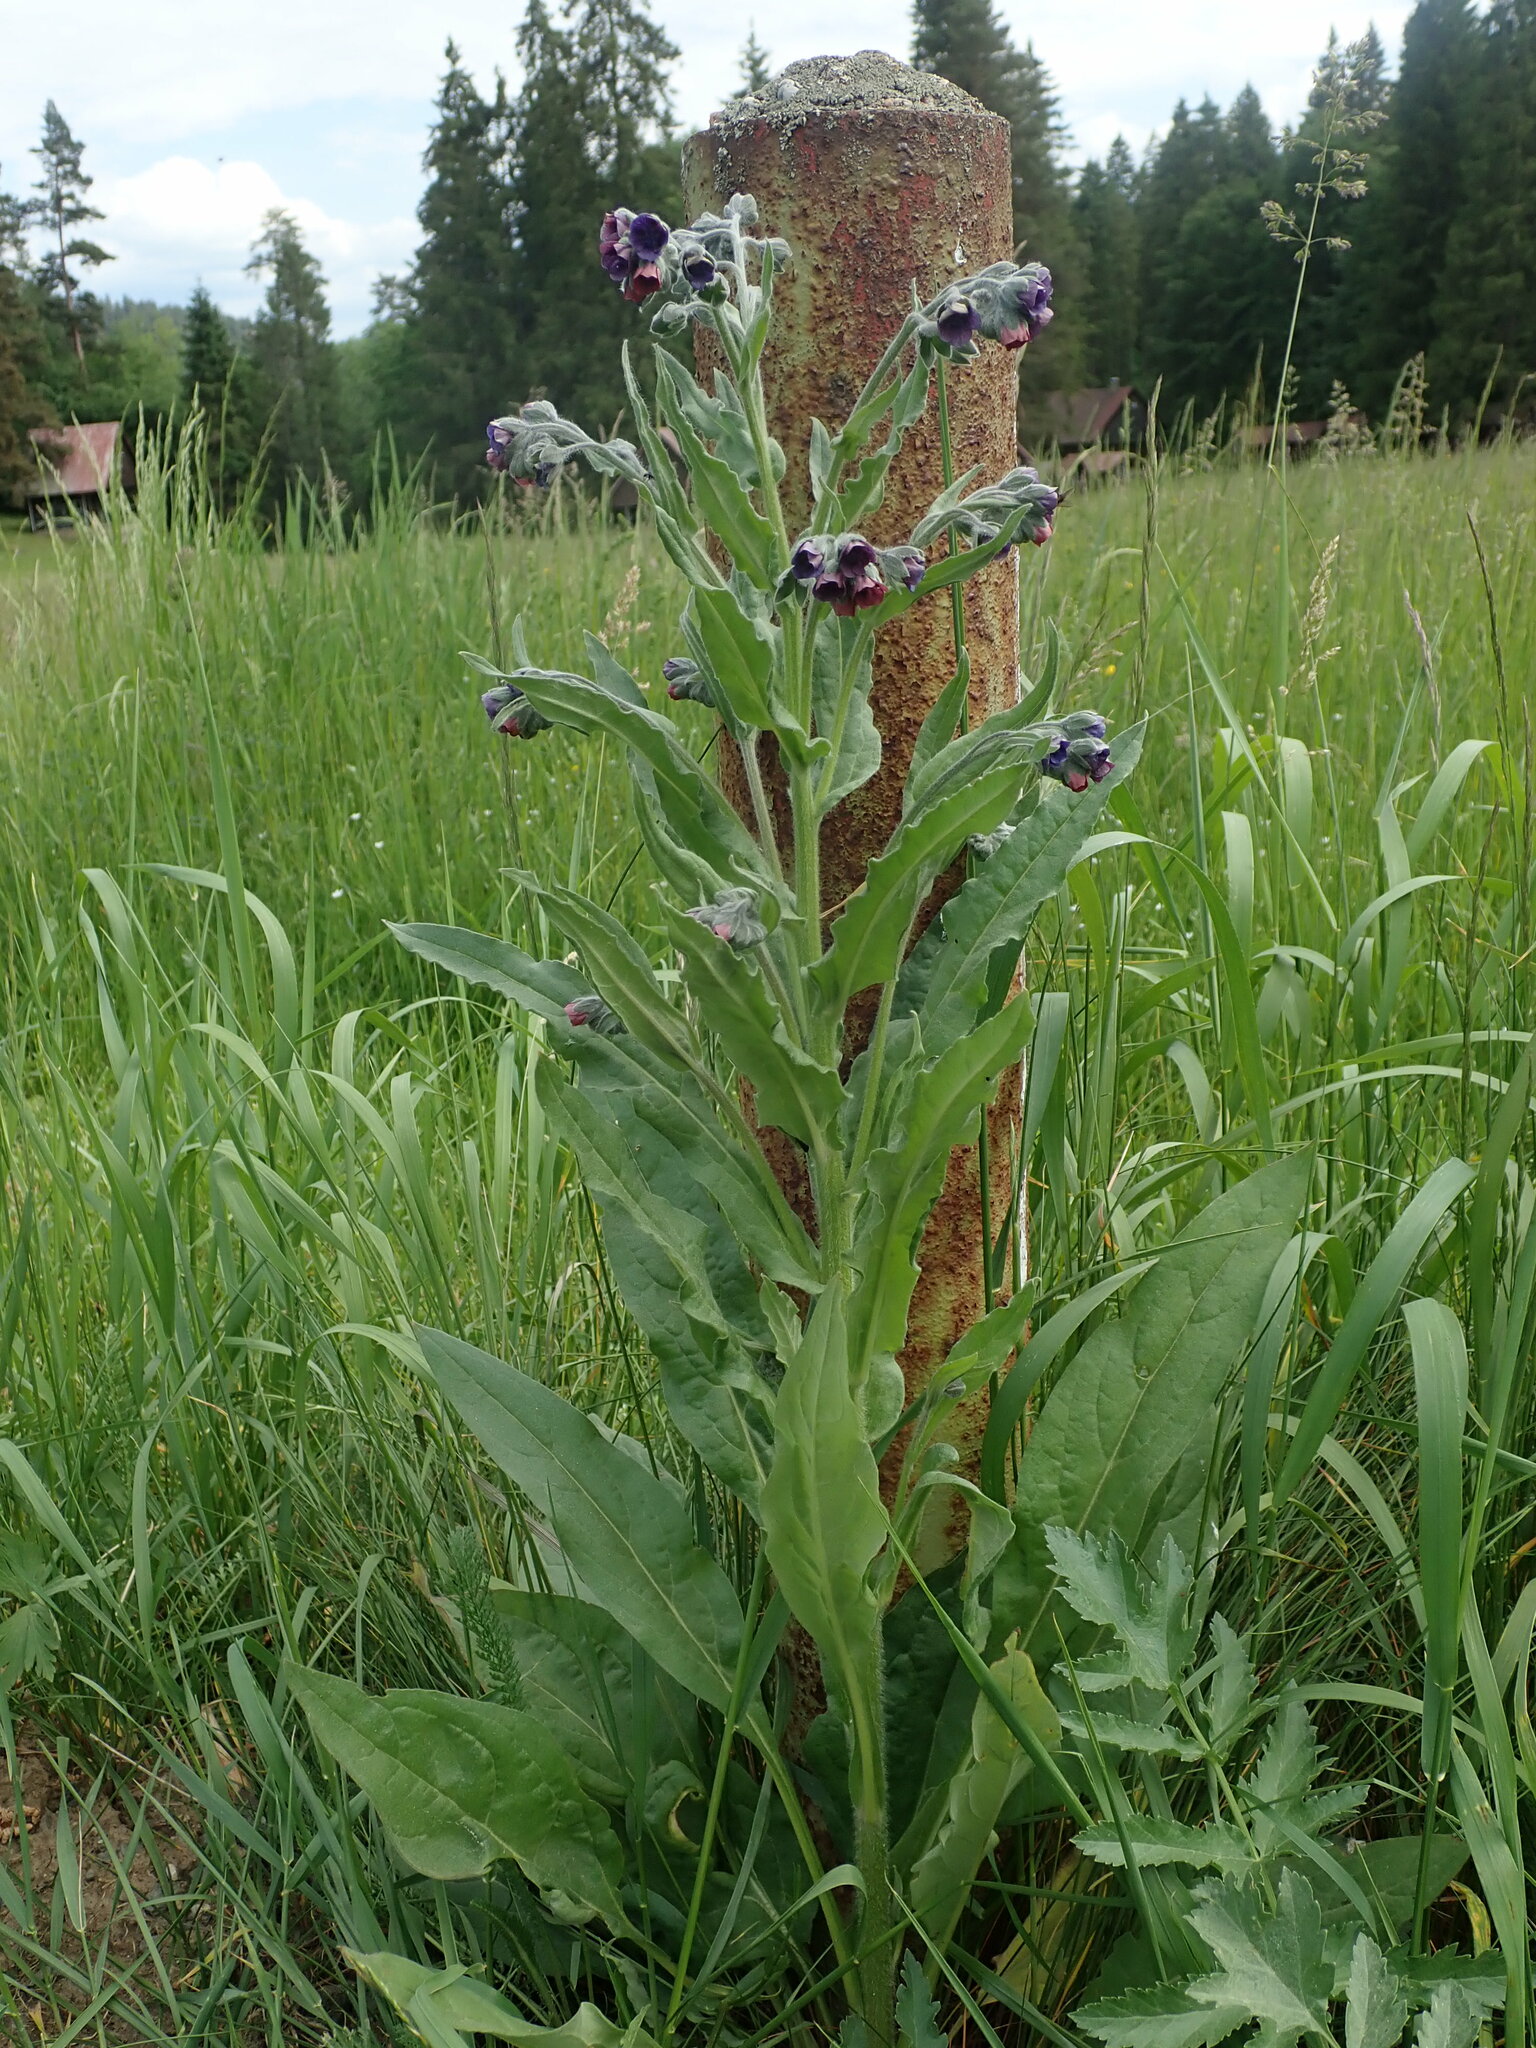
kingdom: Plantae
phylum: Tracheophyta
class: Magnoliopsida
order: Boraginales
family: Boraginaceae
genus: Cynoglossum
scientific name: Cynoglossum officinale
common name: Hound's-tongue
